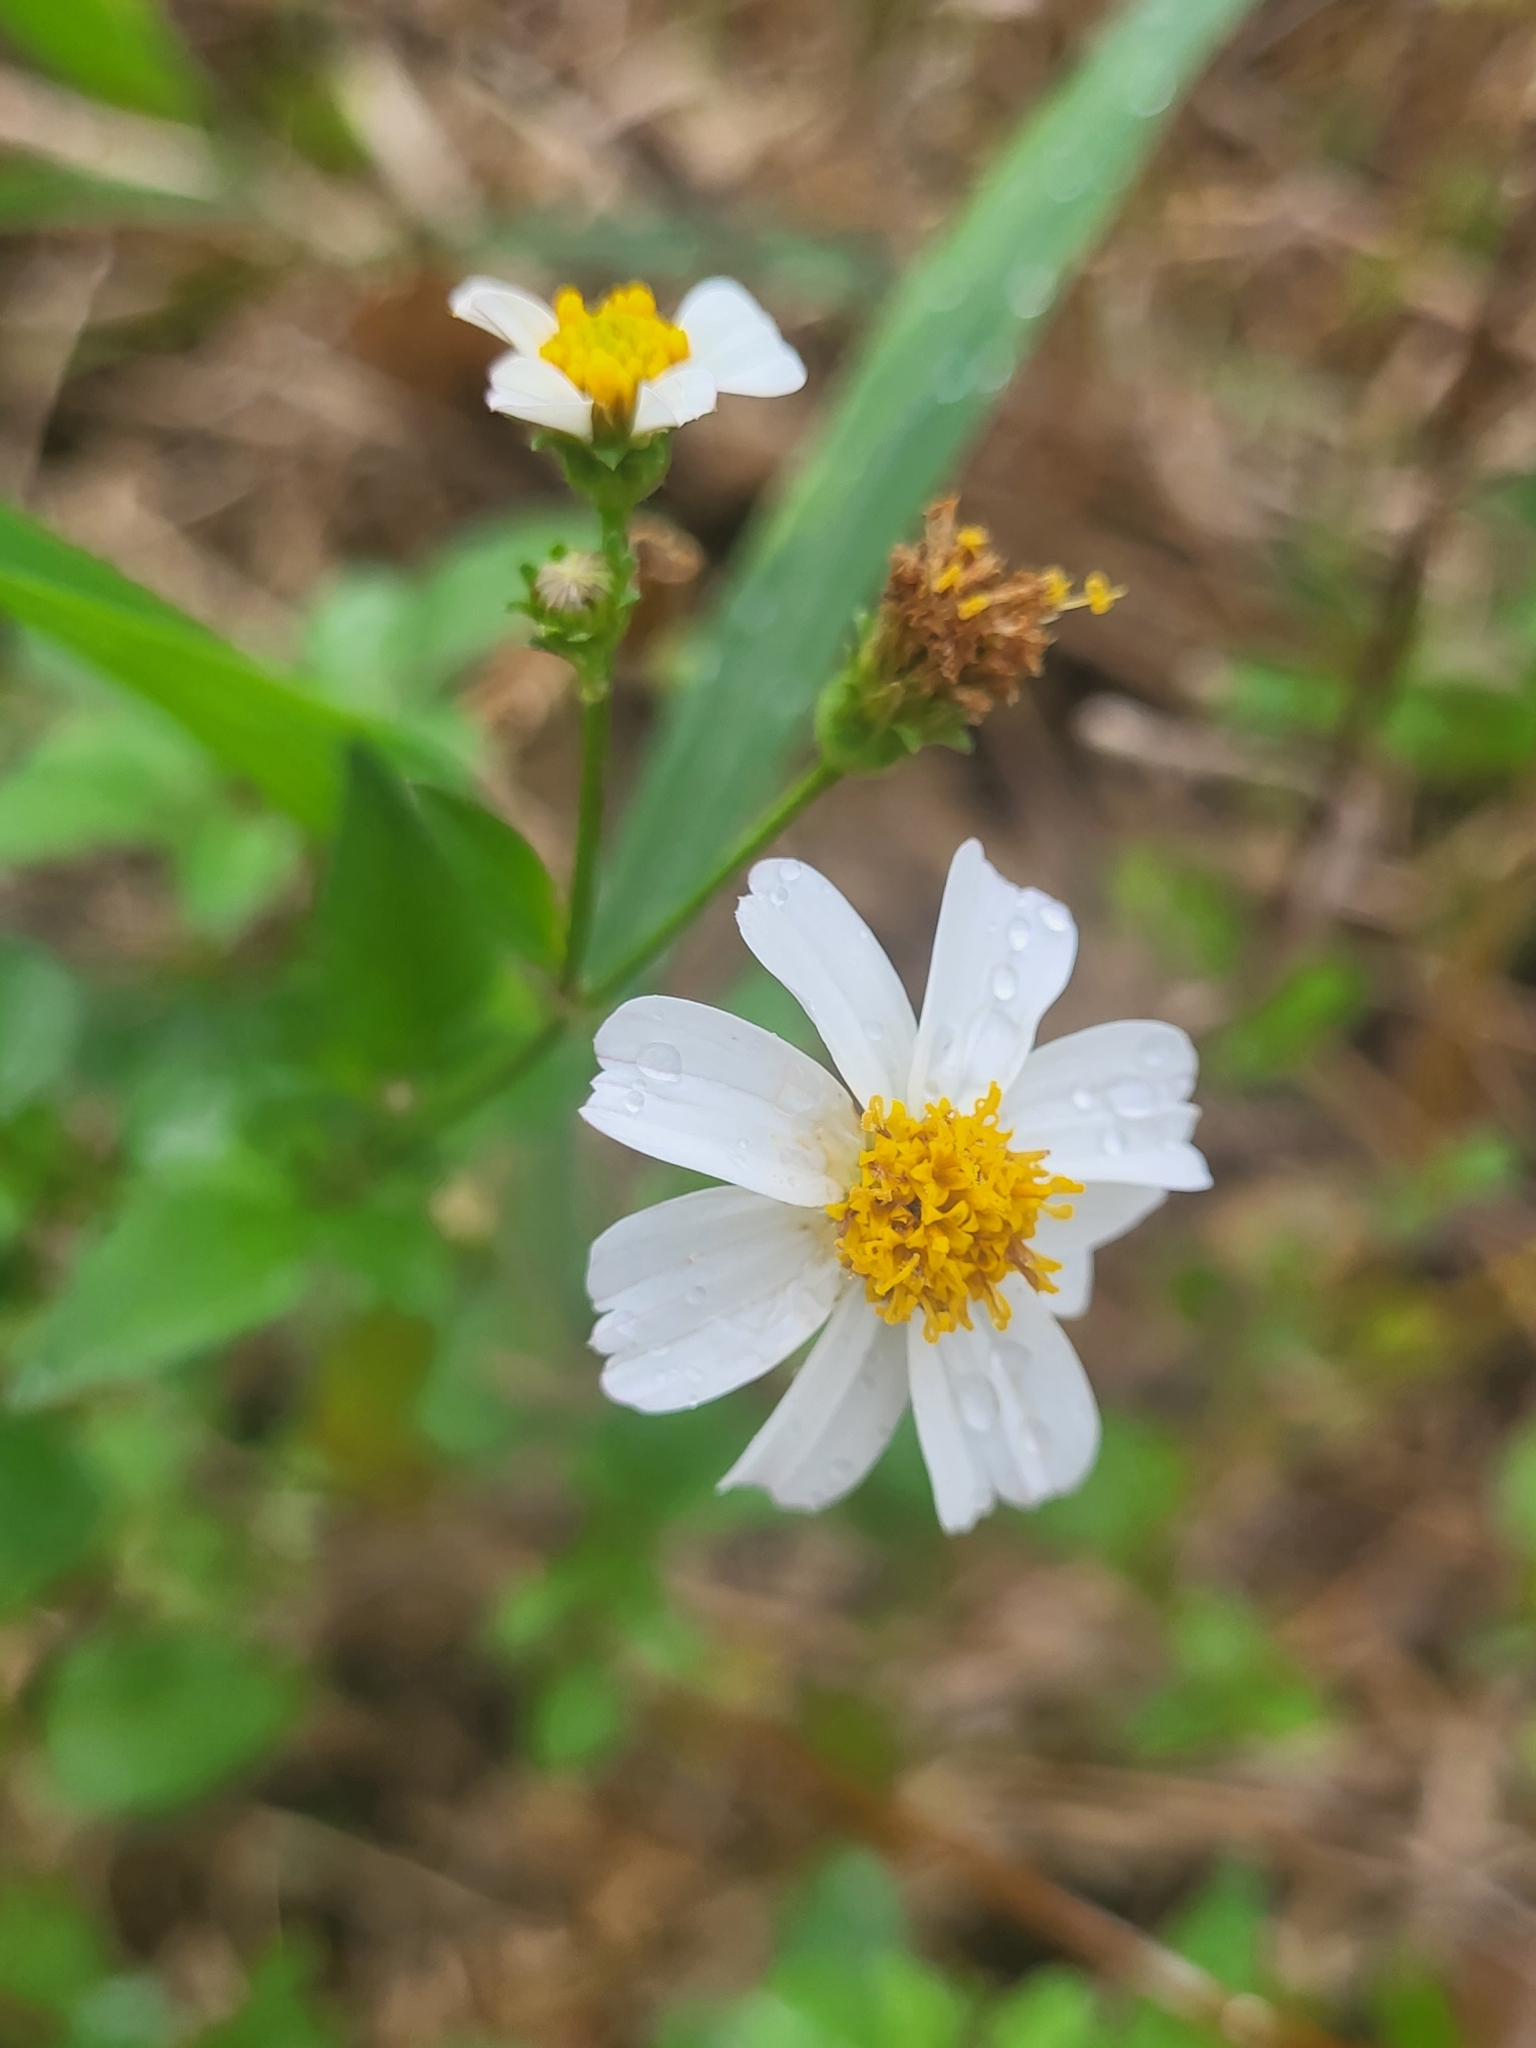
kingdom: Plantae
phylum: Tracheophyta
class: Magnoliopsida
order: Asterales
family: Asteraceae
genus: Bidens
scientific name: Bidens alba
